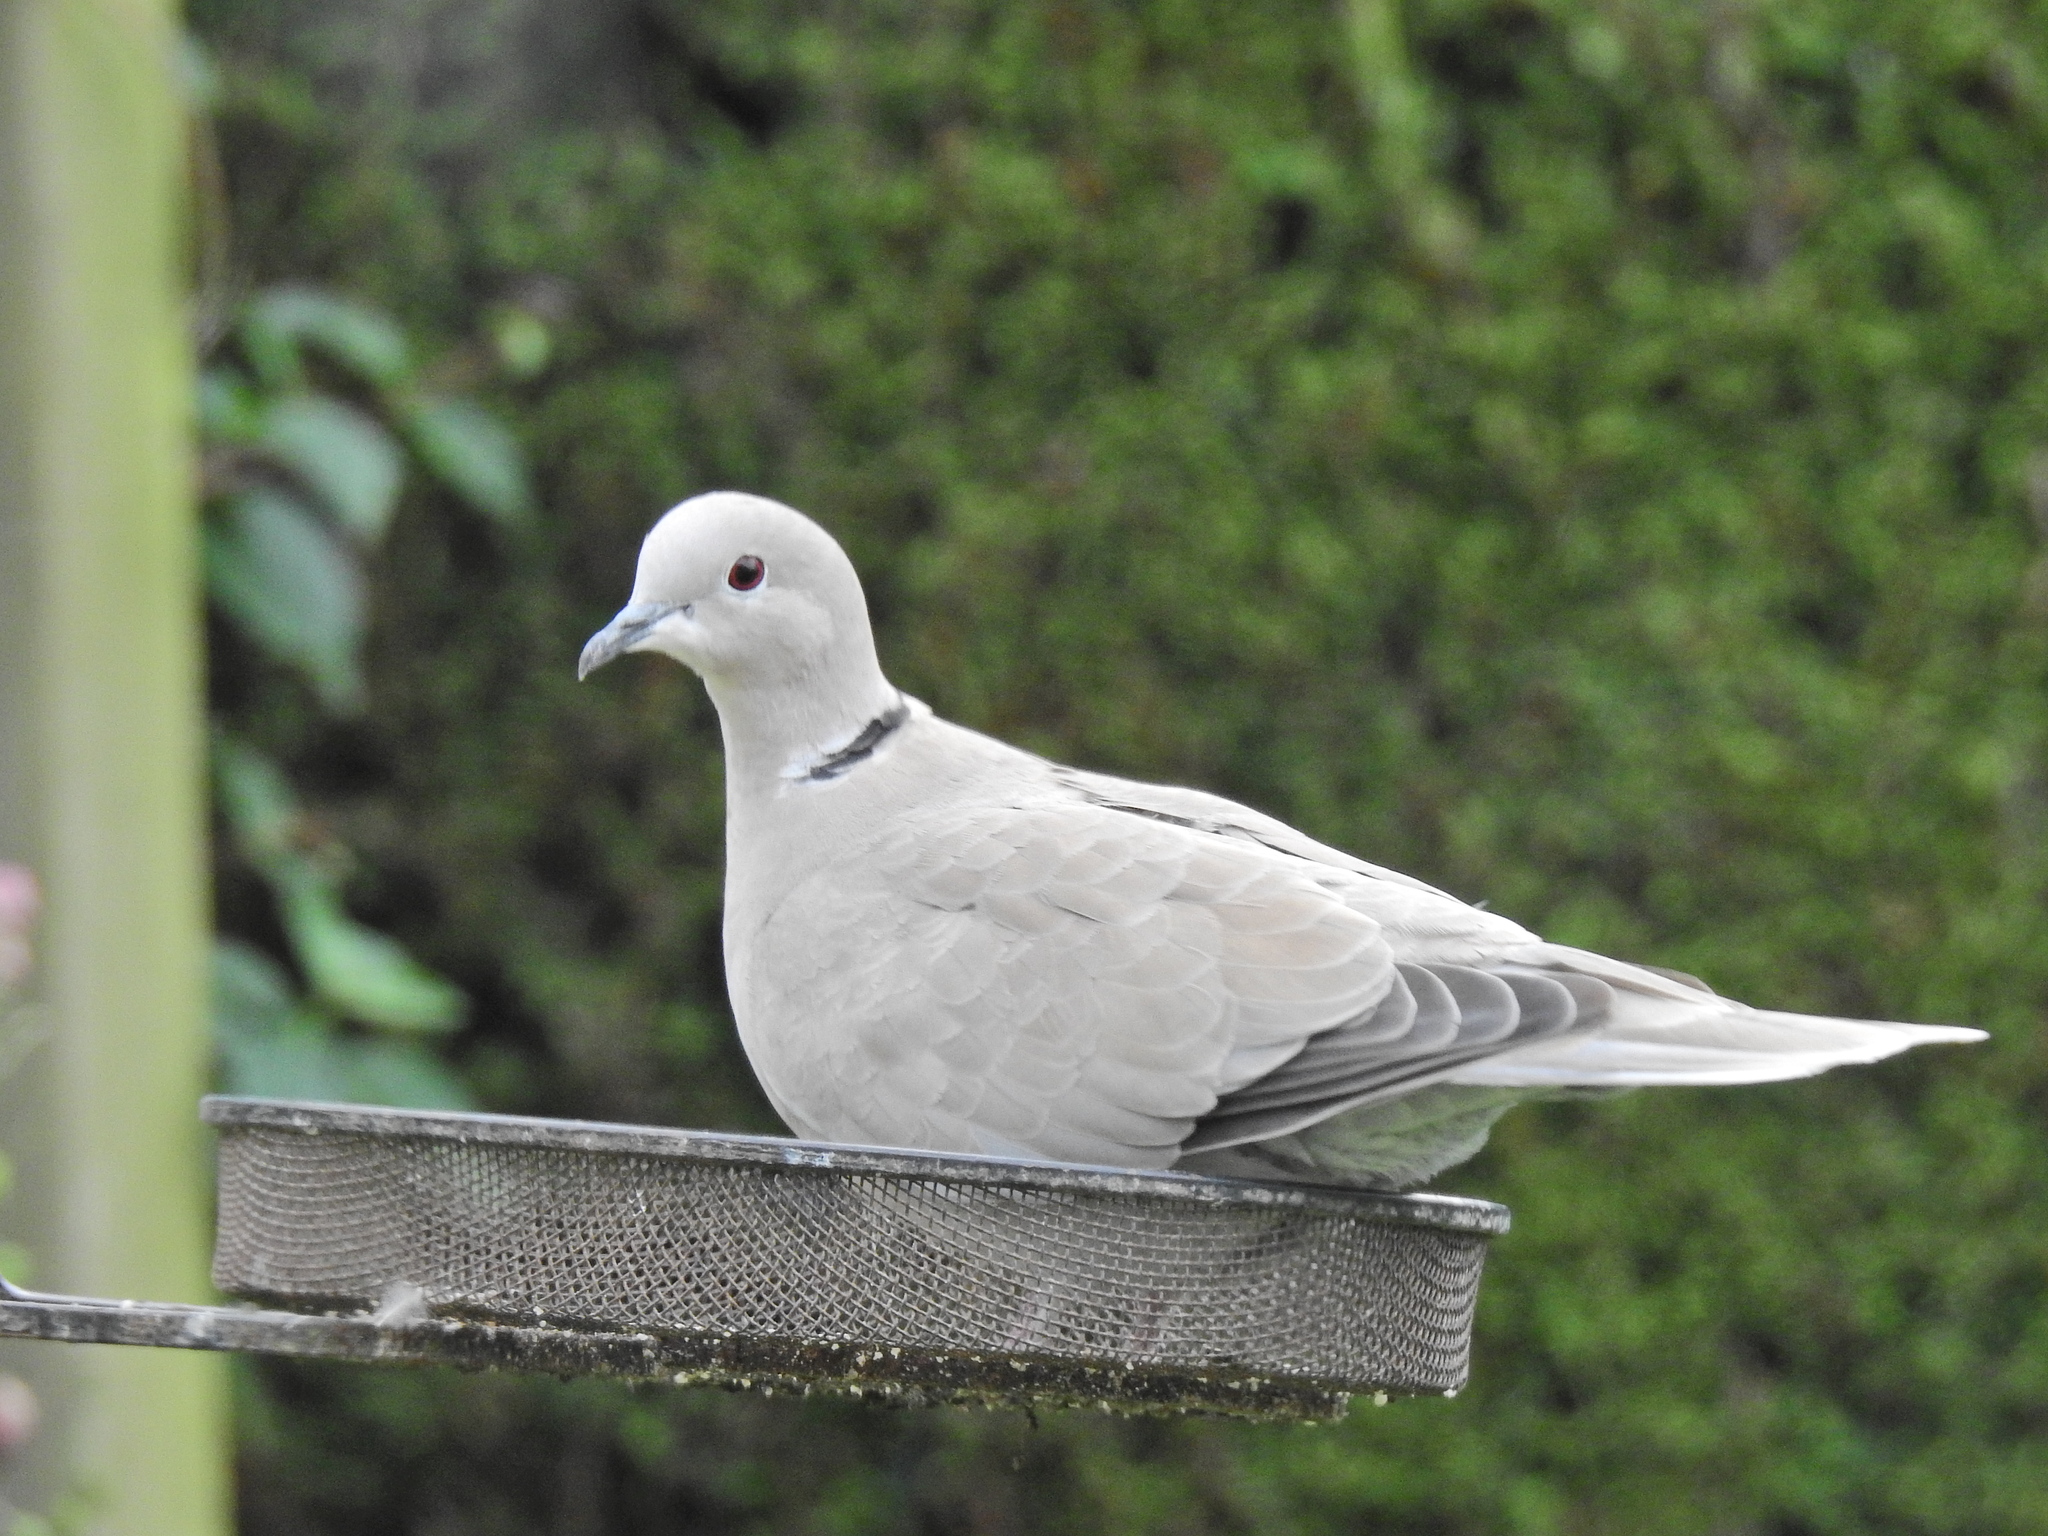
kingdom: Animalia
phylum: Chordata
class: Aves
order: Columbiformes
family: Columbidae
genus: Streptopelia
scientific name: Streptopelia decaocto
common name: Eurasian collared dove
